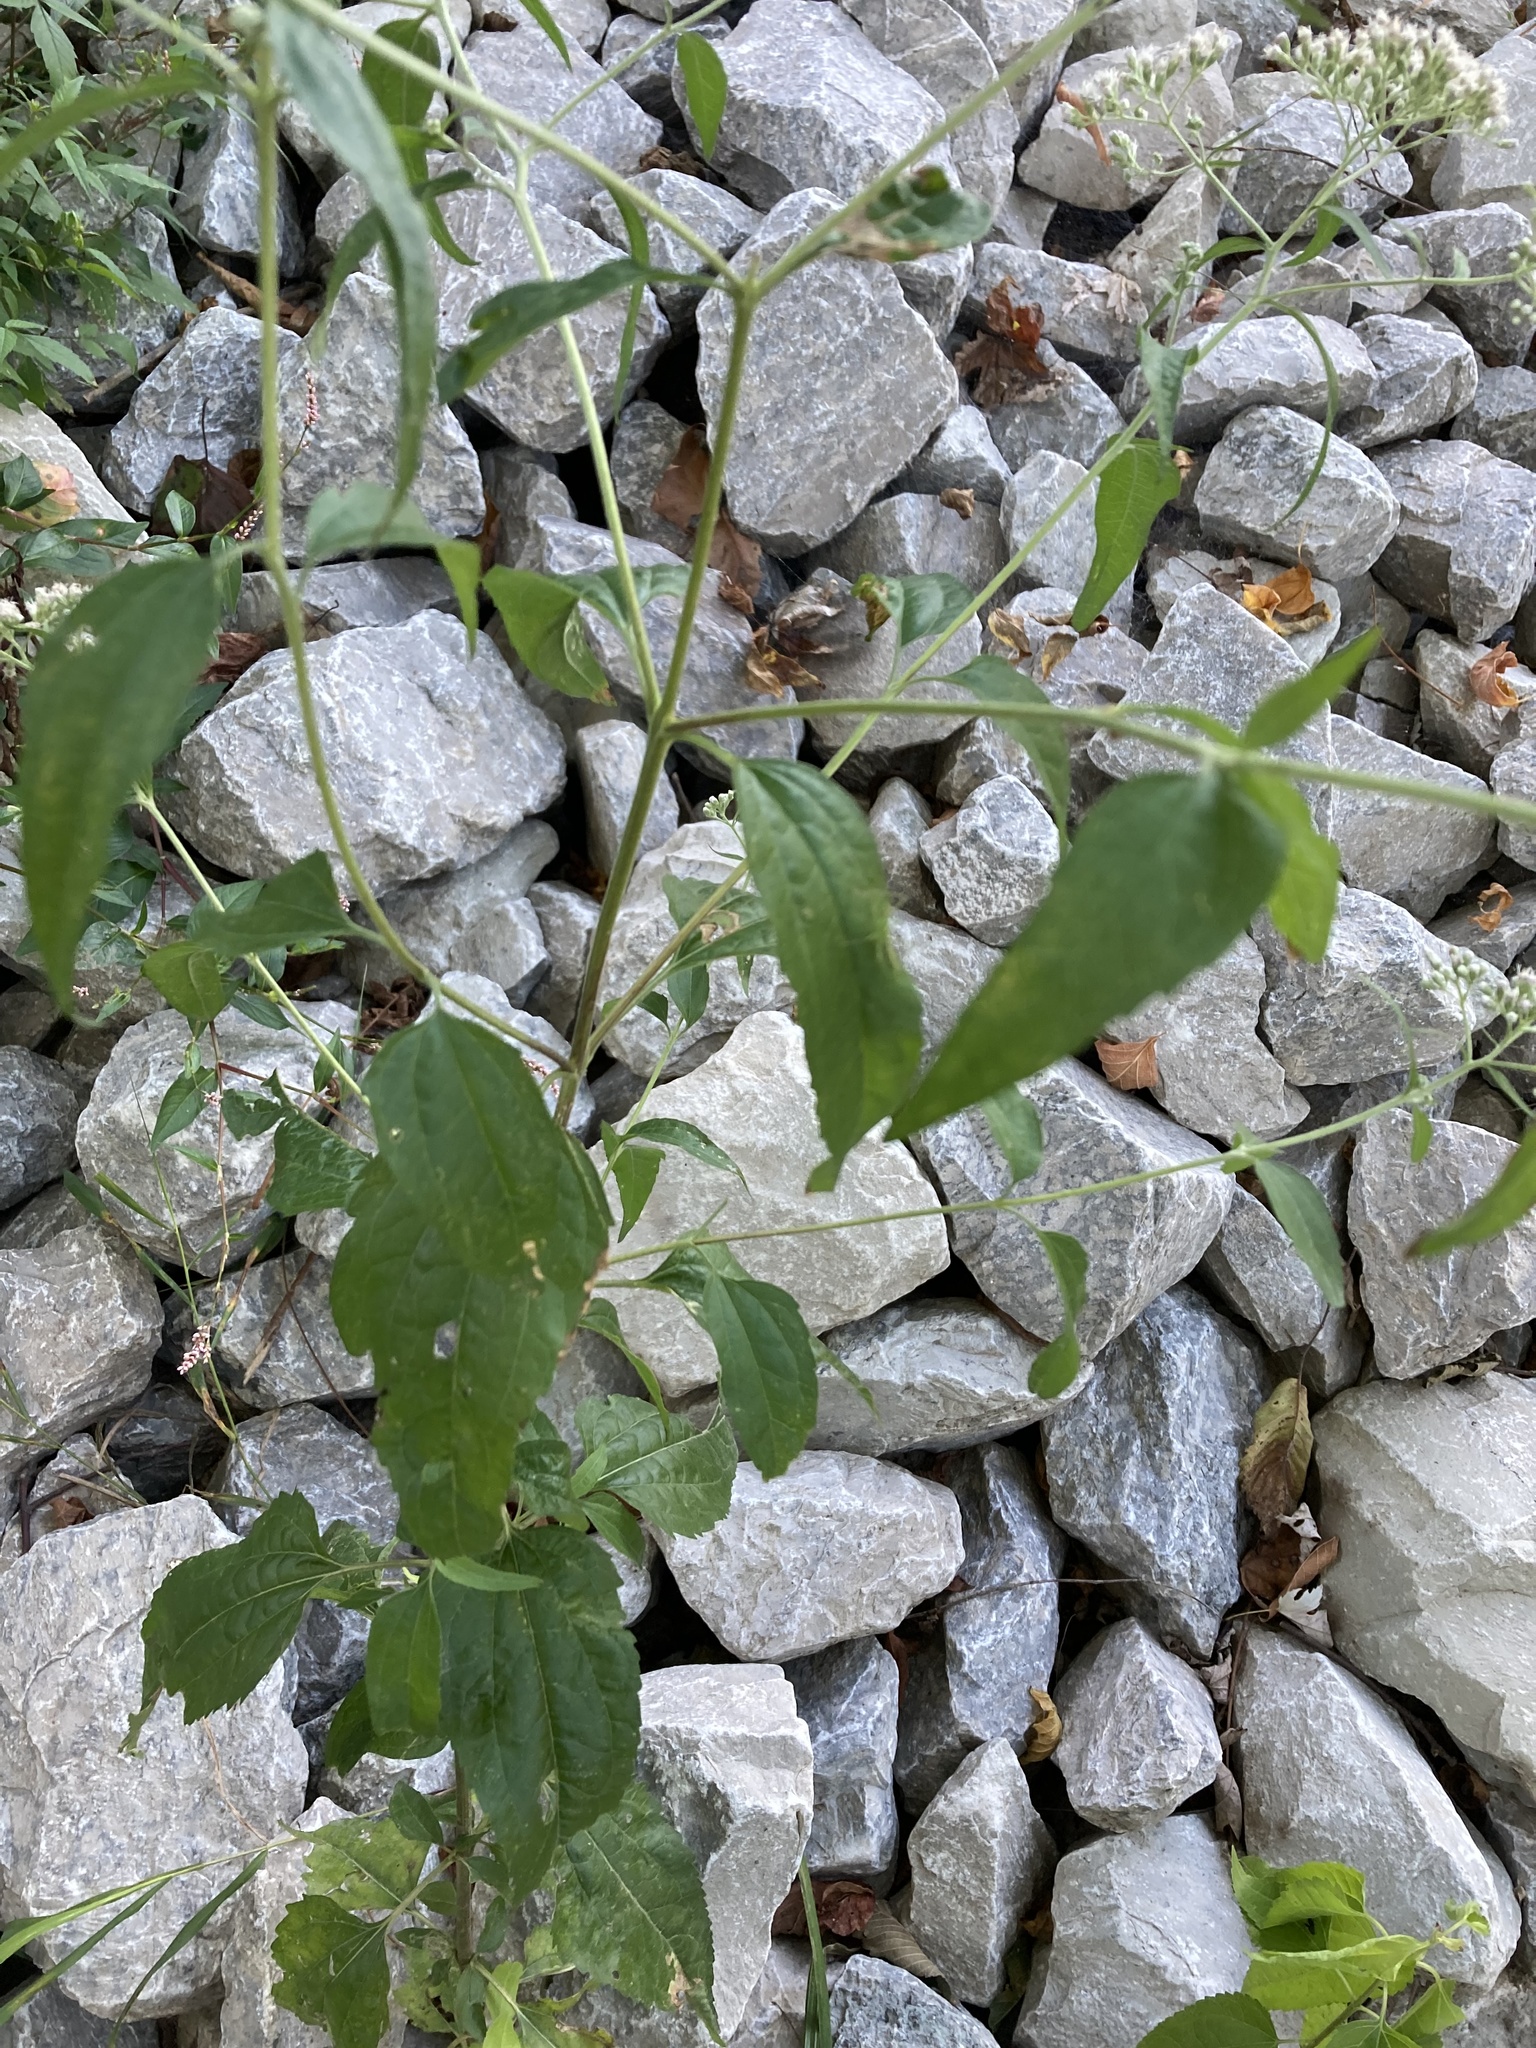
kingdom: Plantae
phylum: Tracheophyta
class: Magnoliopsida
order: Asterales
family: Asteraceae
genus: Eupatorium
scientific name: Eupatorium serotinum
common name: Late boneset
